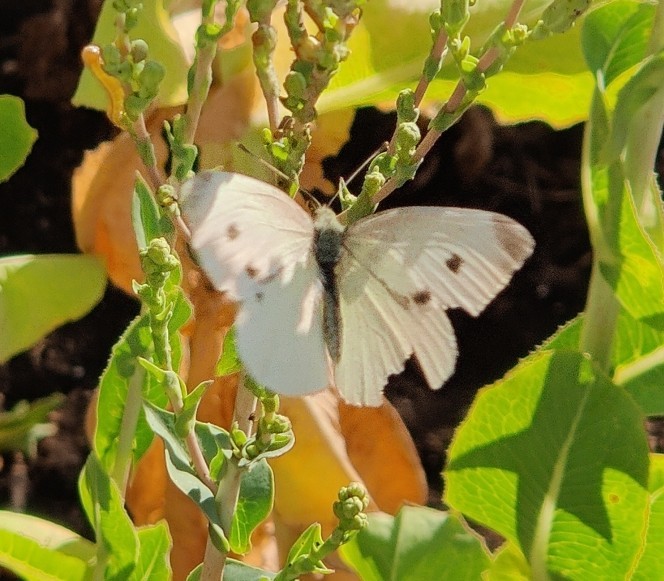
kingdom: Animalia
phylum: Arthropoda
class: Insecta
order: Lepidoptera
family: Pieridae
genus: Pieris
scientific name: Pieris rapae
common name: Small white
